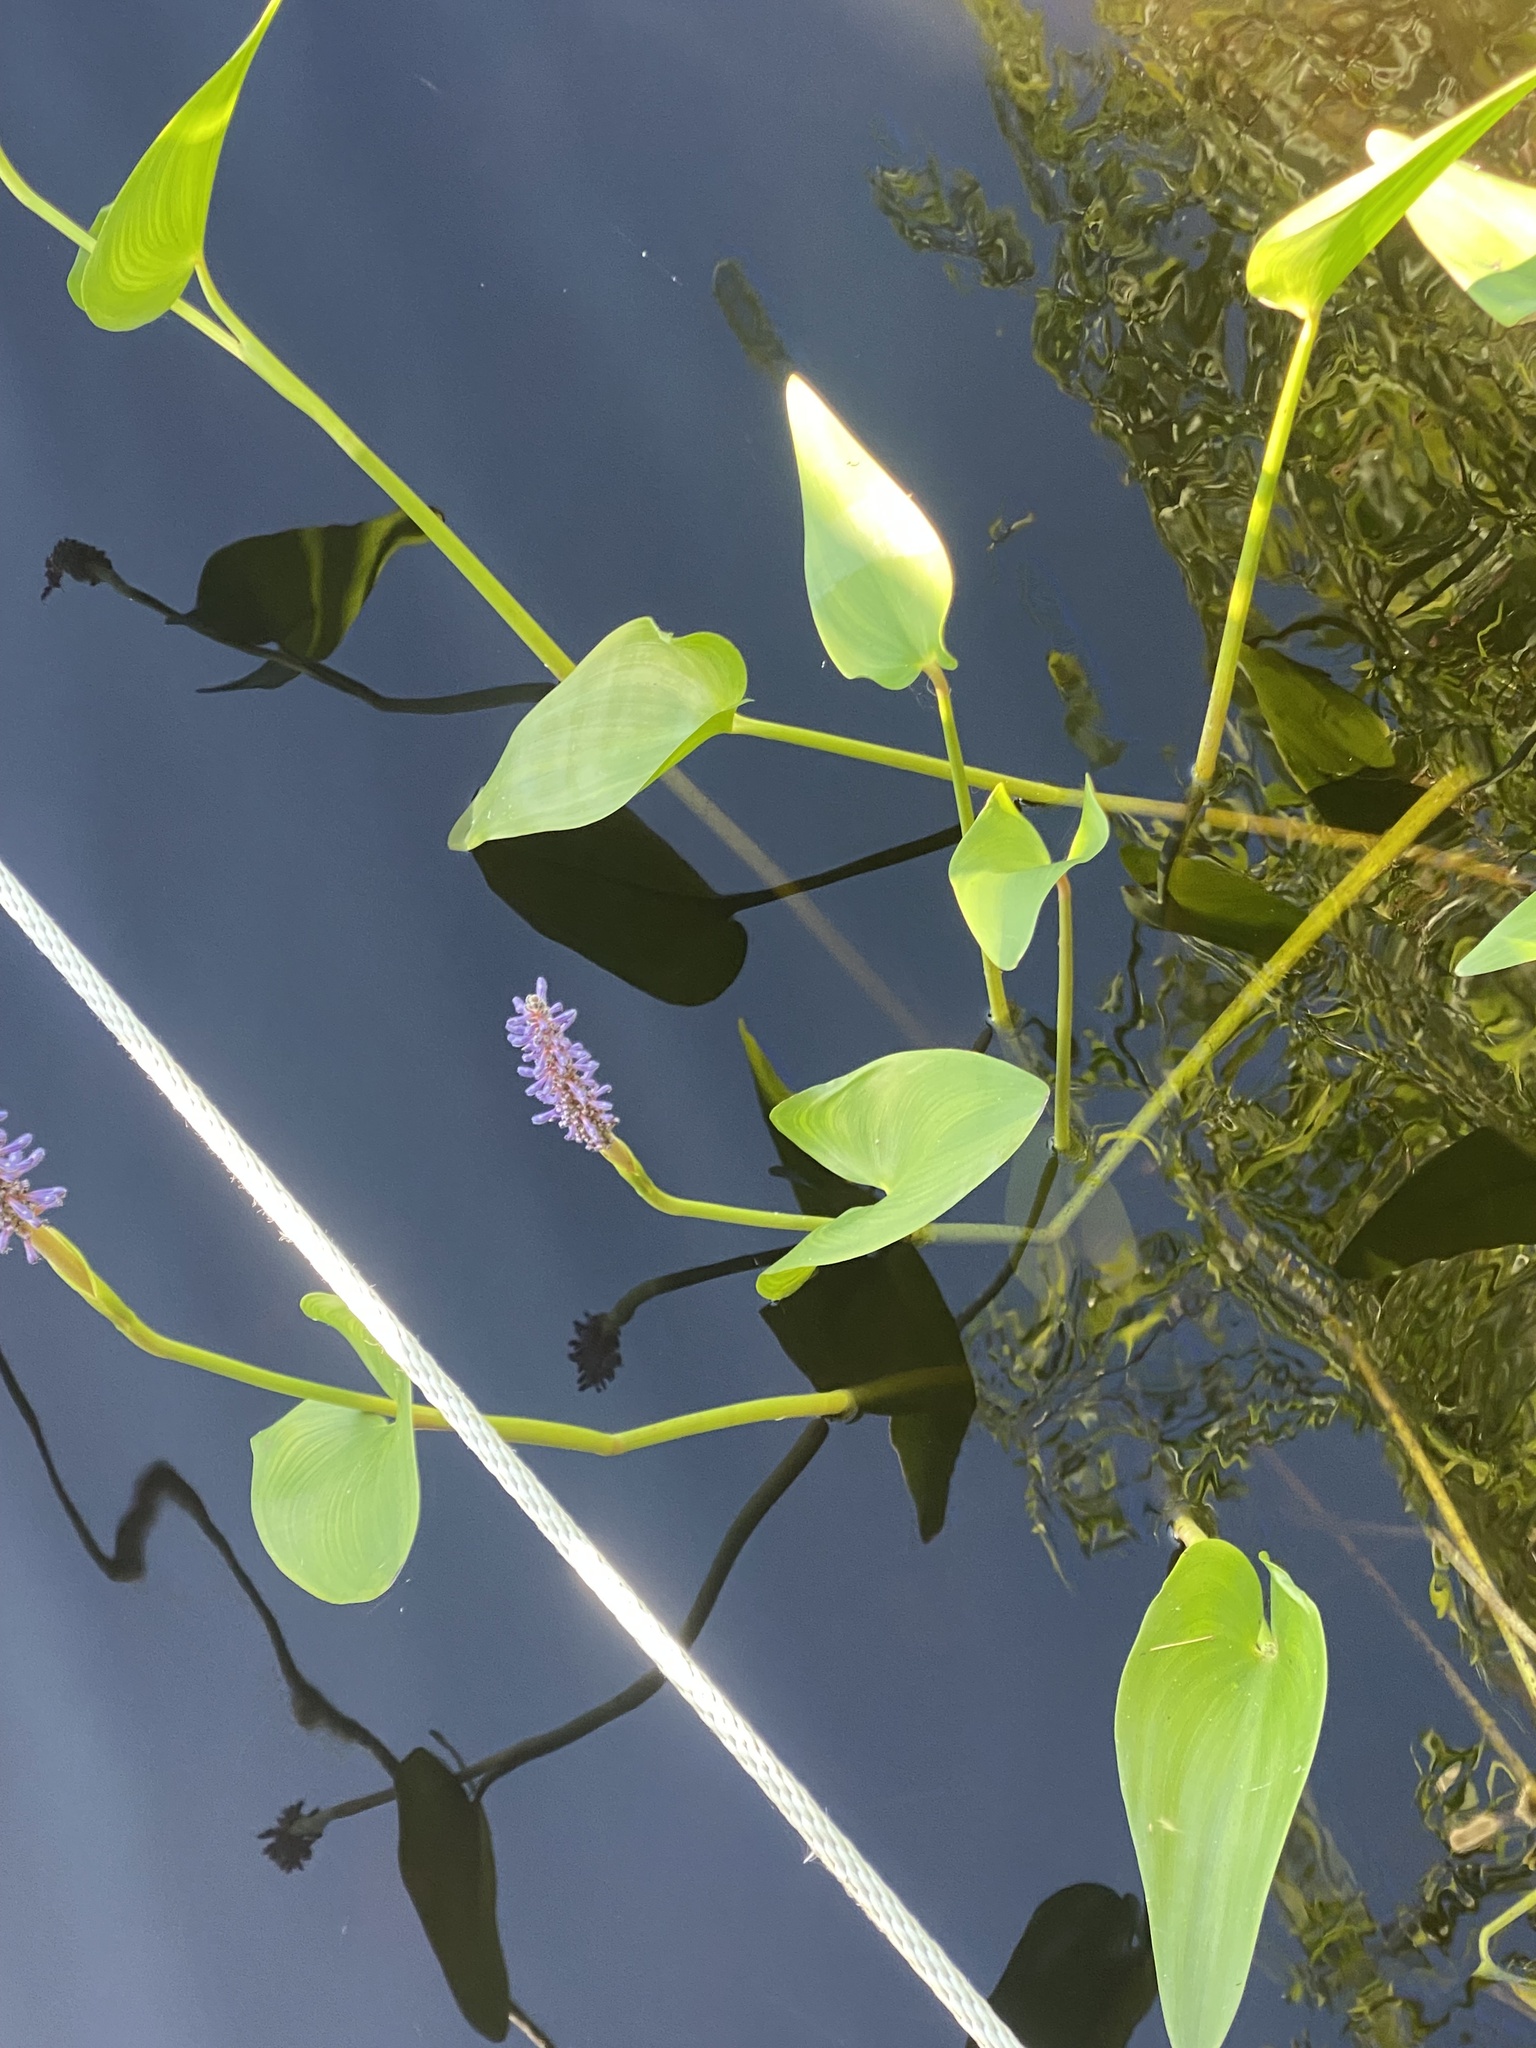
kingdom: Plantae
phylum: Tracheophyta
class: Liliopsida
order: Commelinales
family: Pontederiaceae
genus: Pontederia
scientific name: Pontederia cordata
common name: Pickerelweed
